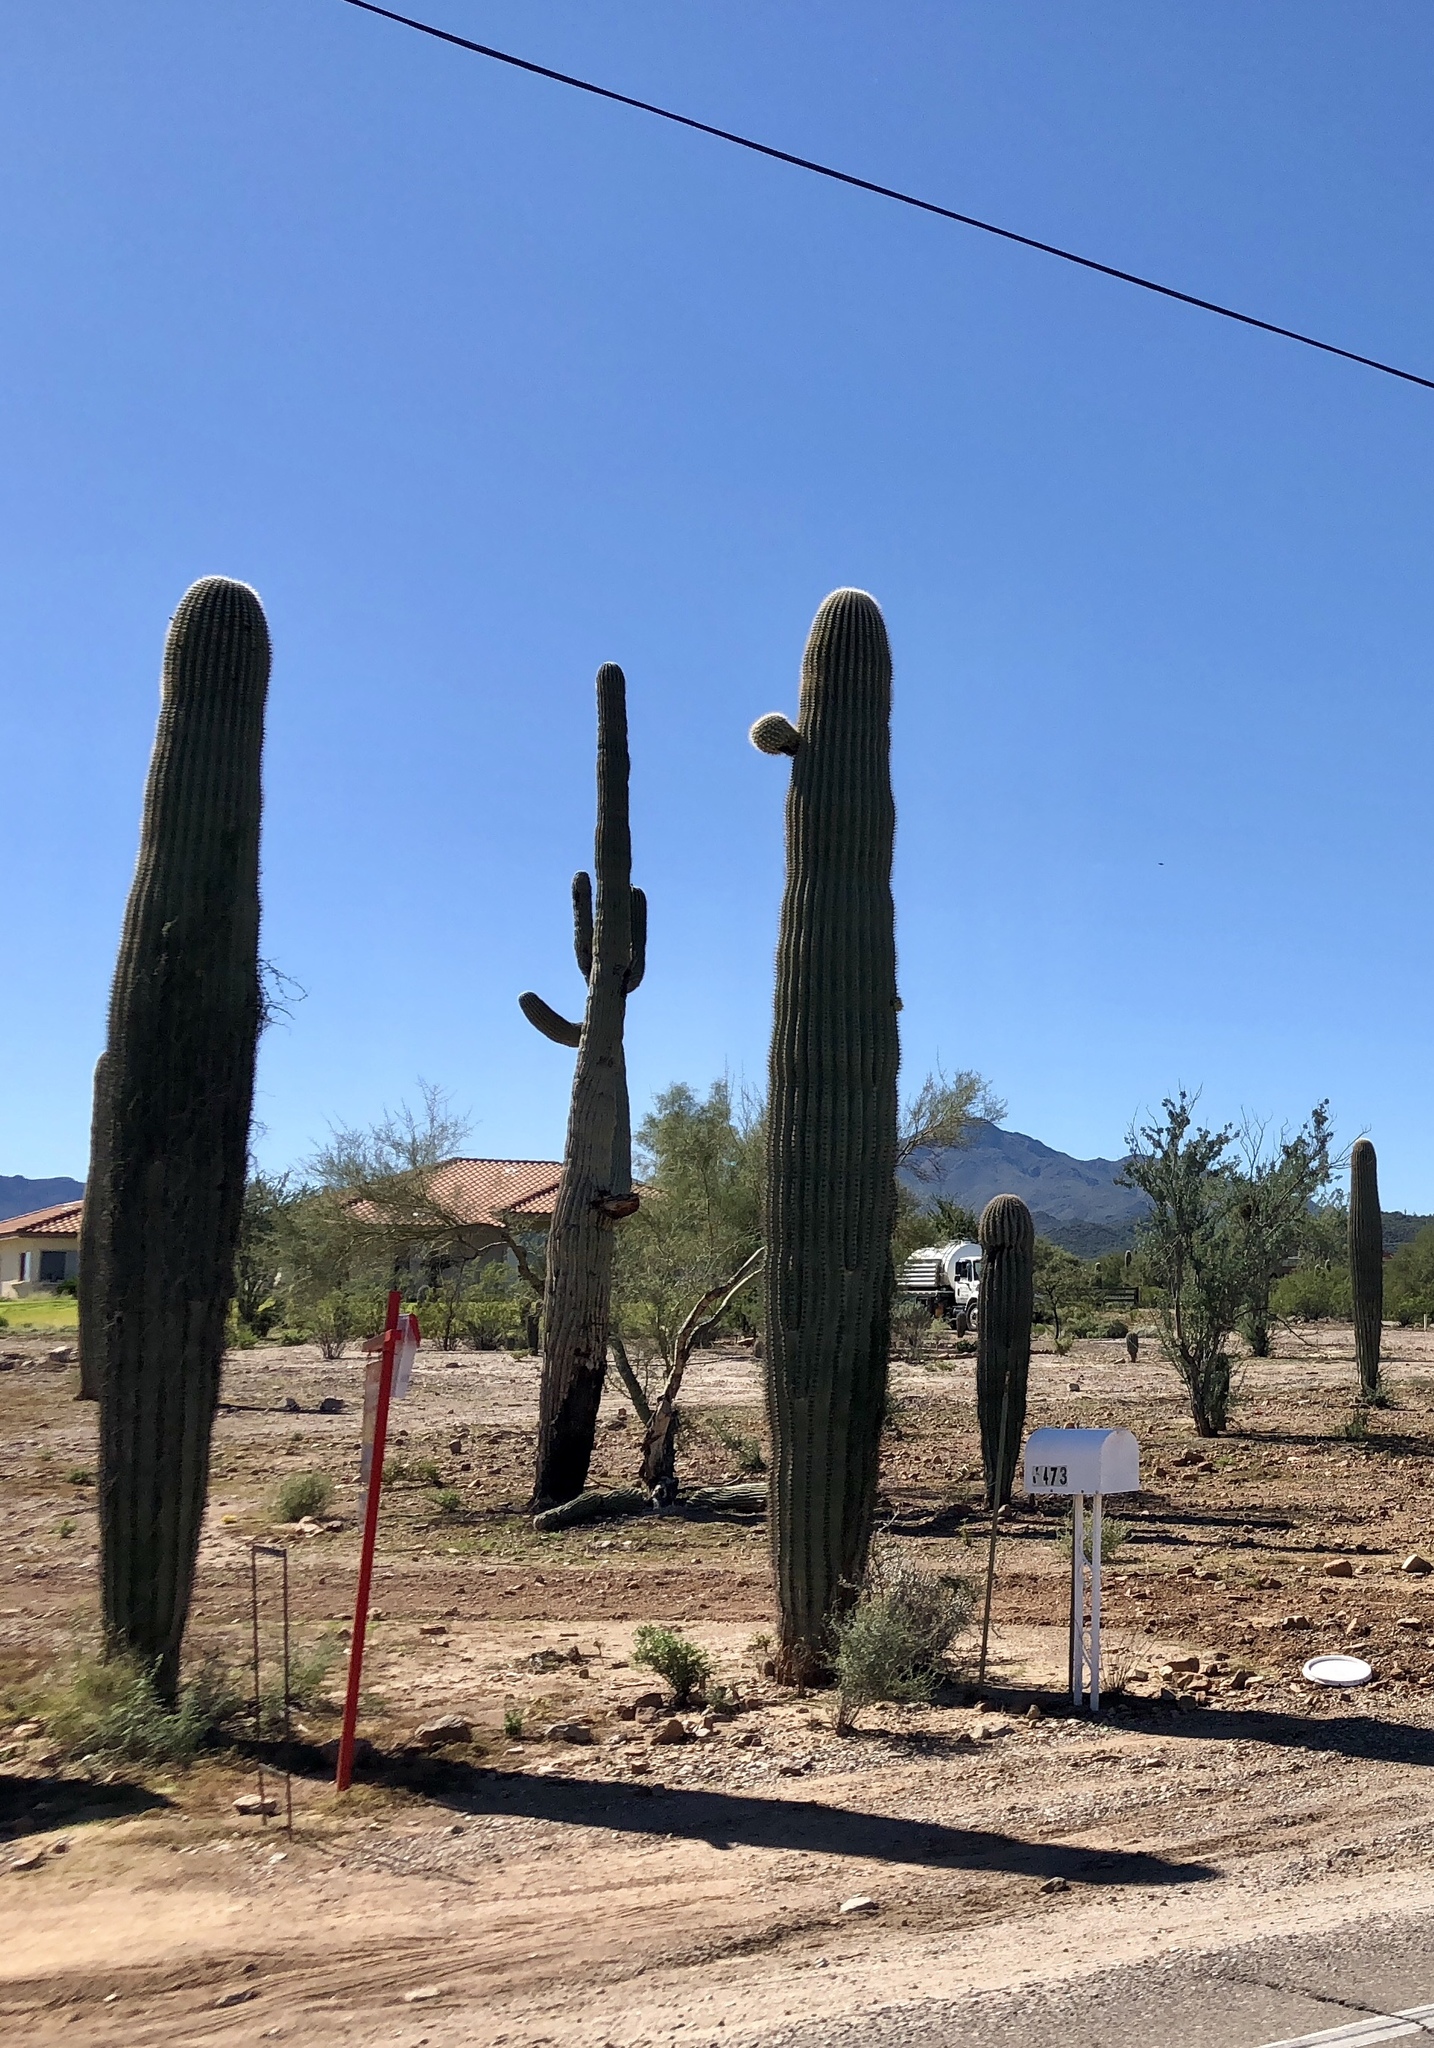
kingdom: Plantae
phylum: Tracheophyta
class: Magnoliopsida
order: Caryophyllales
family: Cactaceae
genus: Carnegiea
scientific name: Carnegiea gigantea
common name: Saguaro
